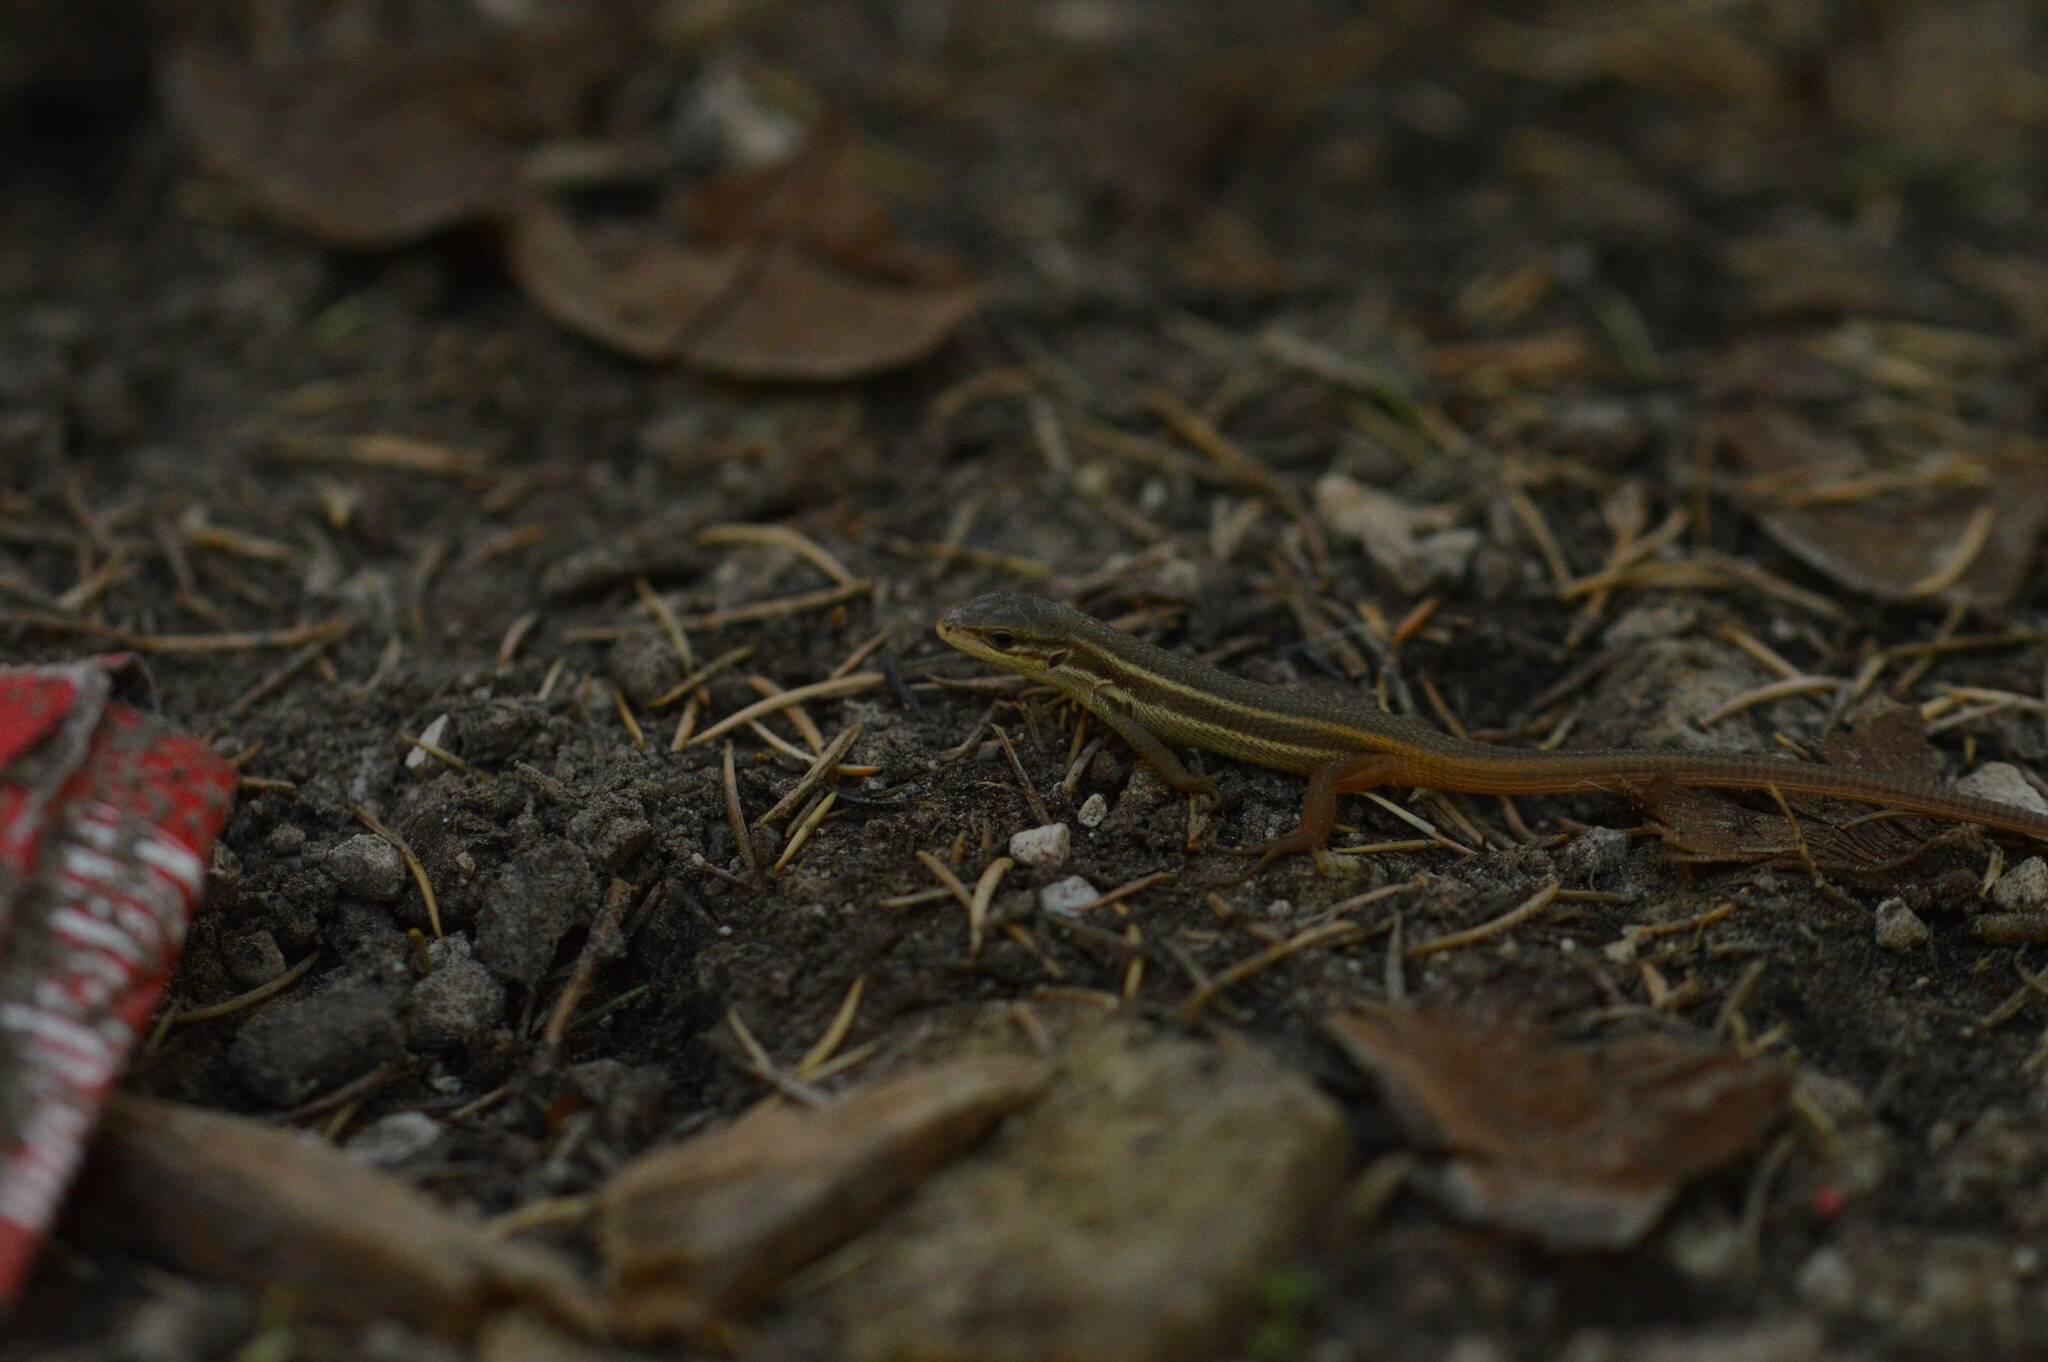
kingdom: Animalia
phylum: Chordata
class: Squamata
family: Lacertidae
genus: Psammodromus
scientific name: Psammodromus algirus
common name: Algerian psammodromus
